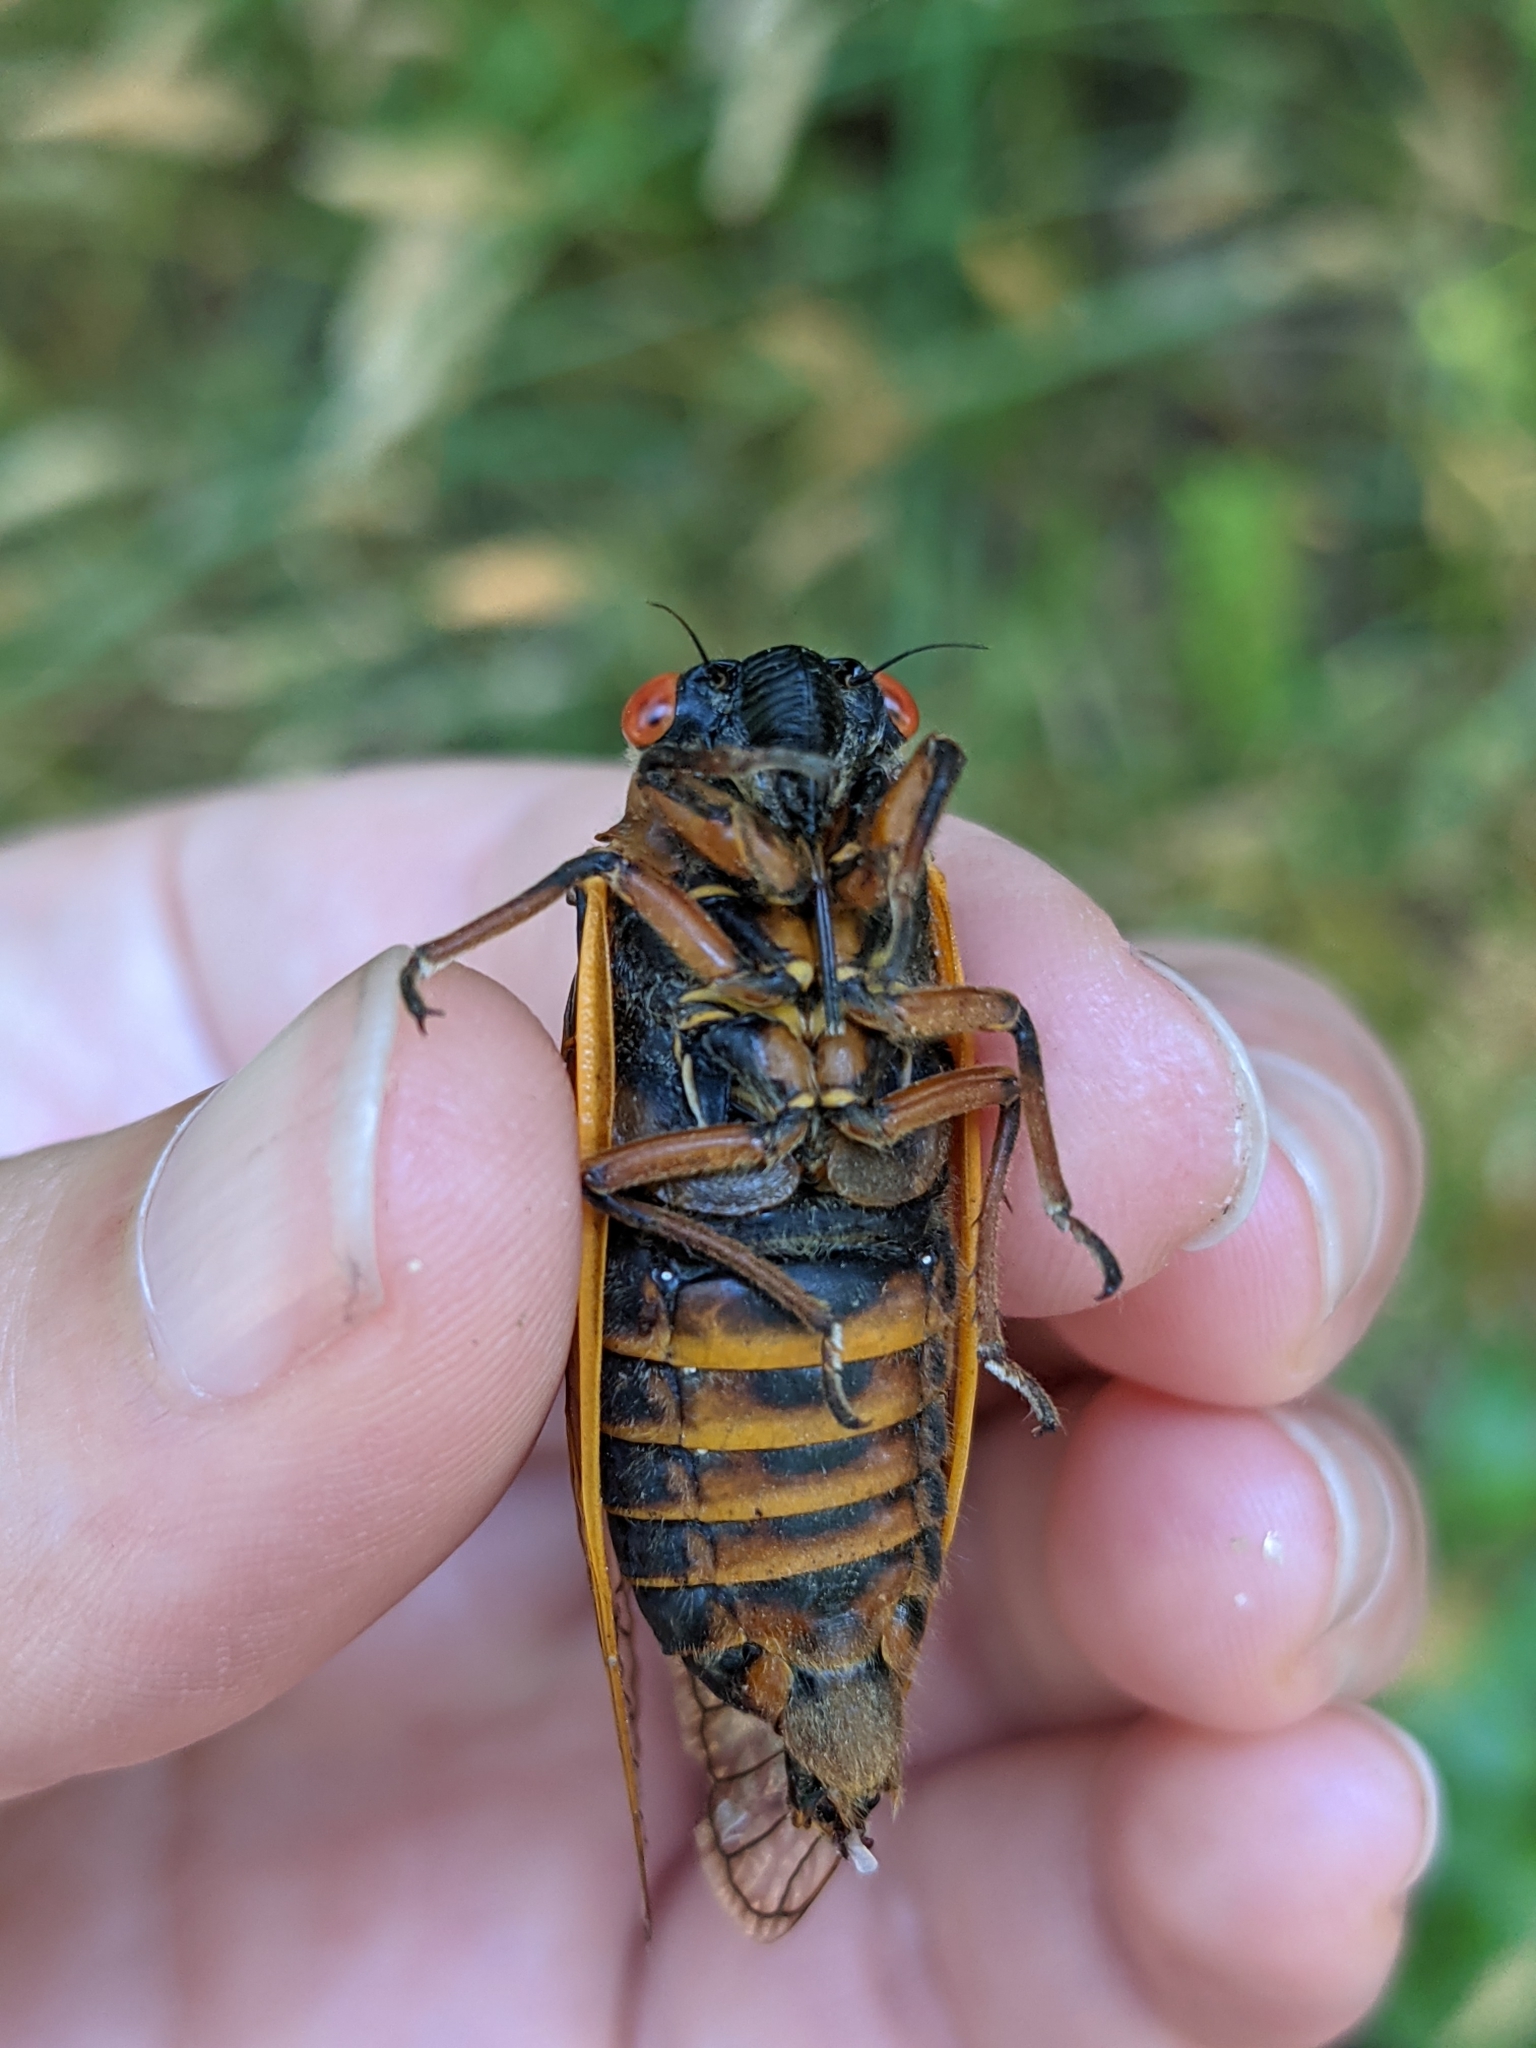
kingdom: Animalia
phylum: Arthropoda
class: Insecta
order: Hemiptera
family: Cicadidae
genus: Magicicada
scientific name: Magicicada septendecim
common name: Periodical cicada
